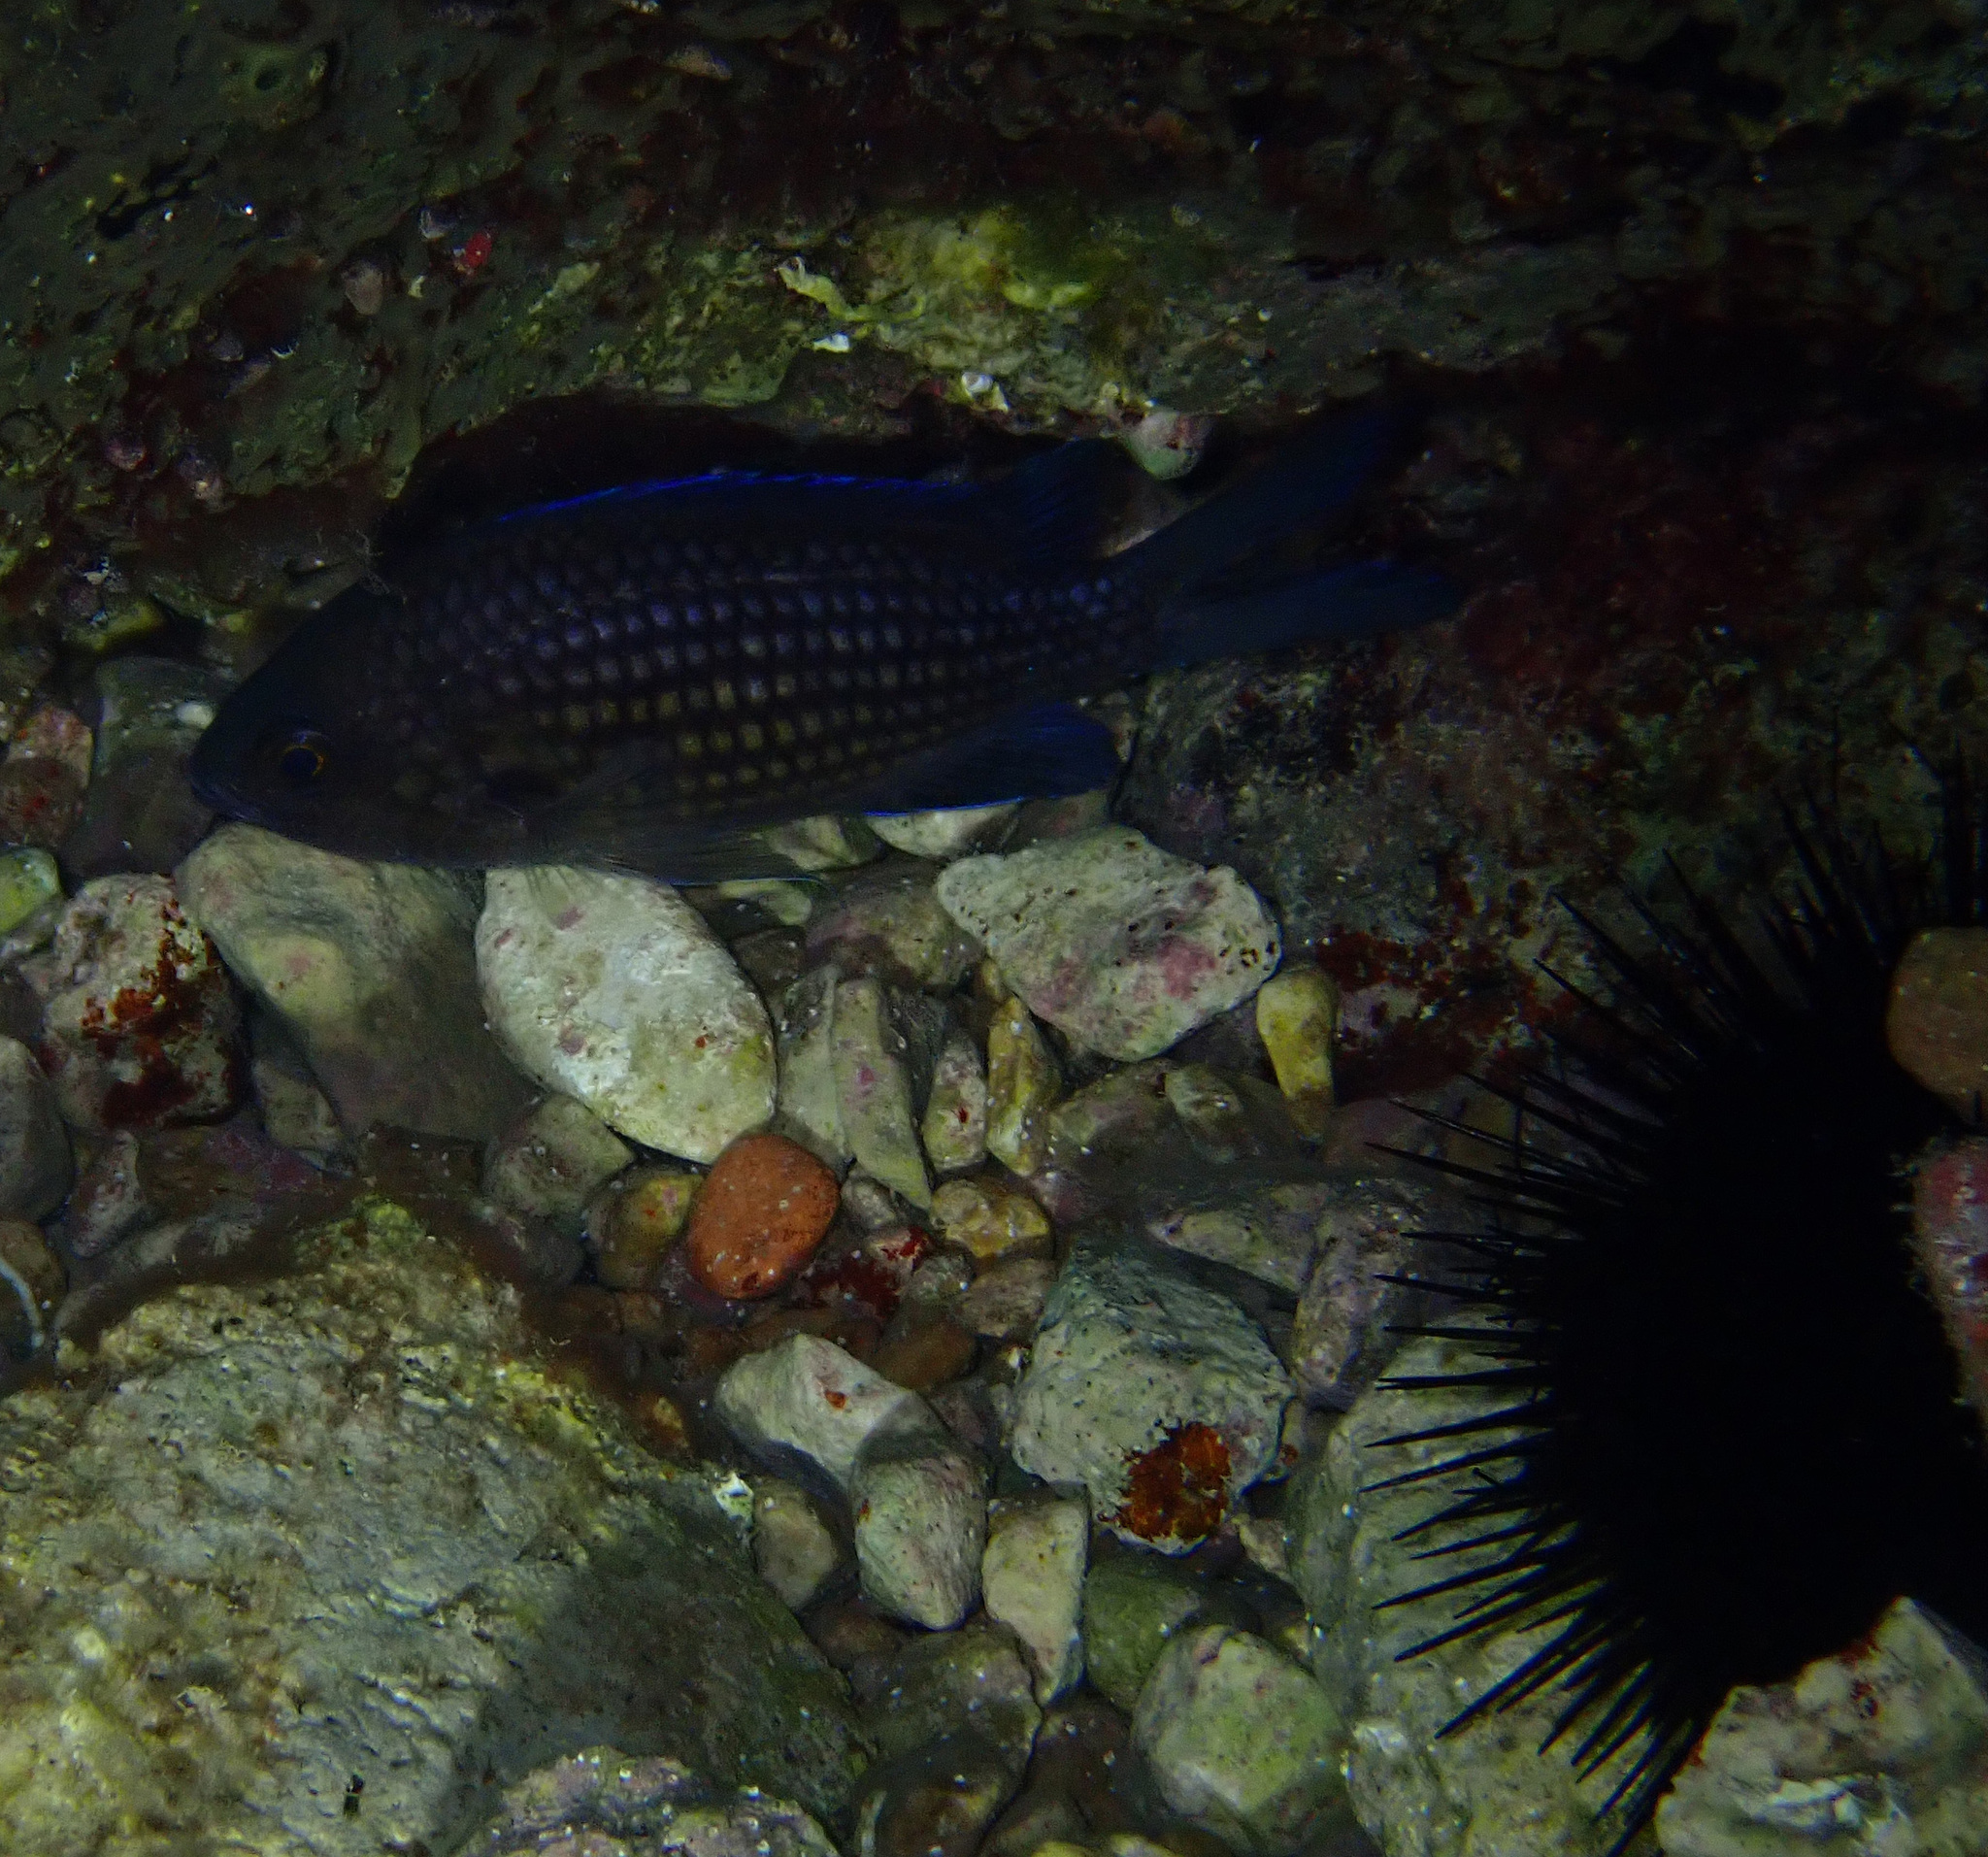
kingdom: Animalia
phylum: Chordata
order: Perciformes
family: Pomacentridae
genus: Chromis
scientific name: Chromis chromis
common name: Damselfish
